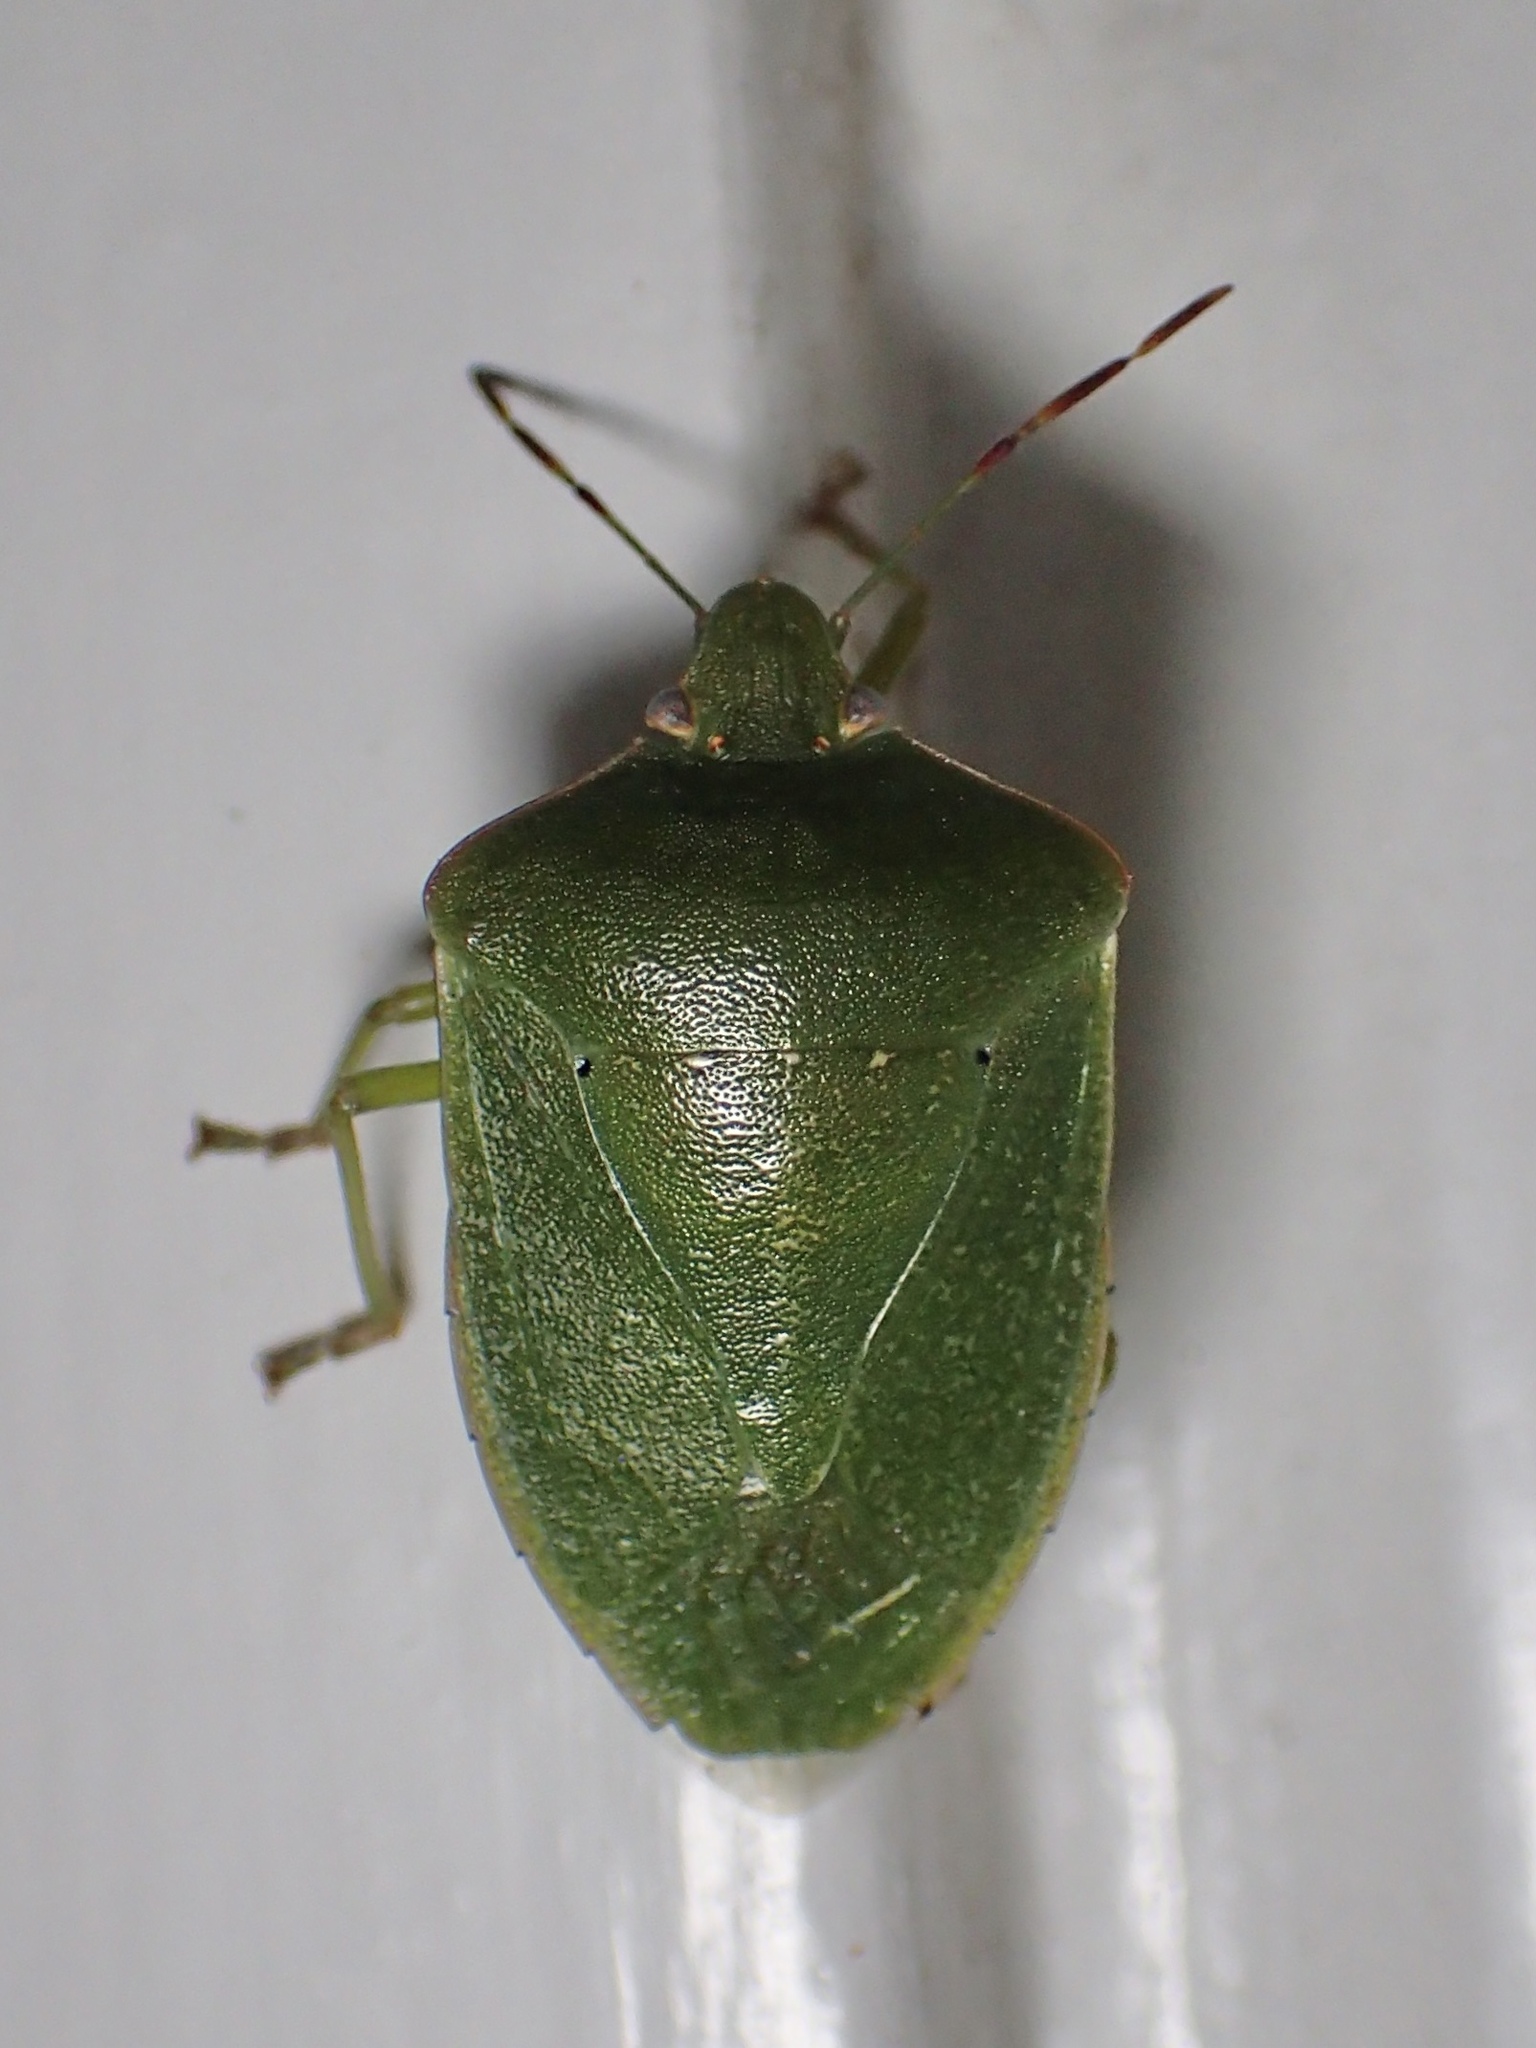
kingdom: Animalia
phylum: Arthropoda
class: Insecta
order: Hemiptera
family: Pentatomidae
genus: Nezara
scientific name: Nezara viridula
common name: Southern green stink bug
